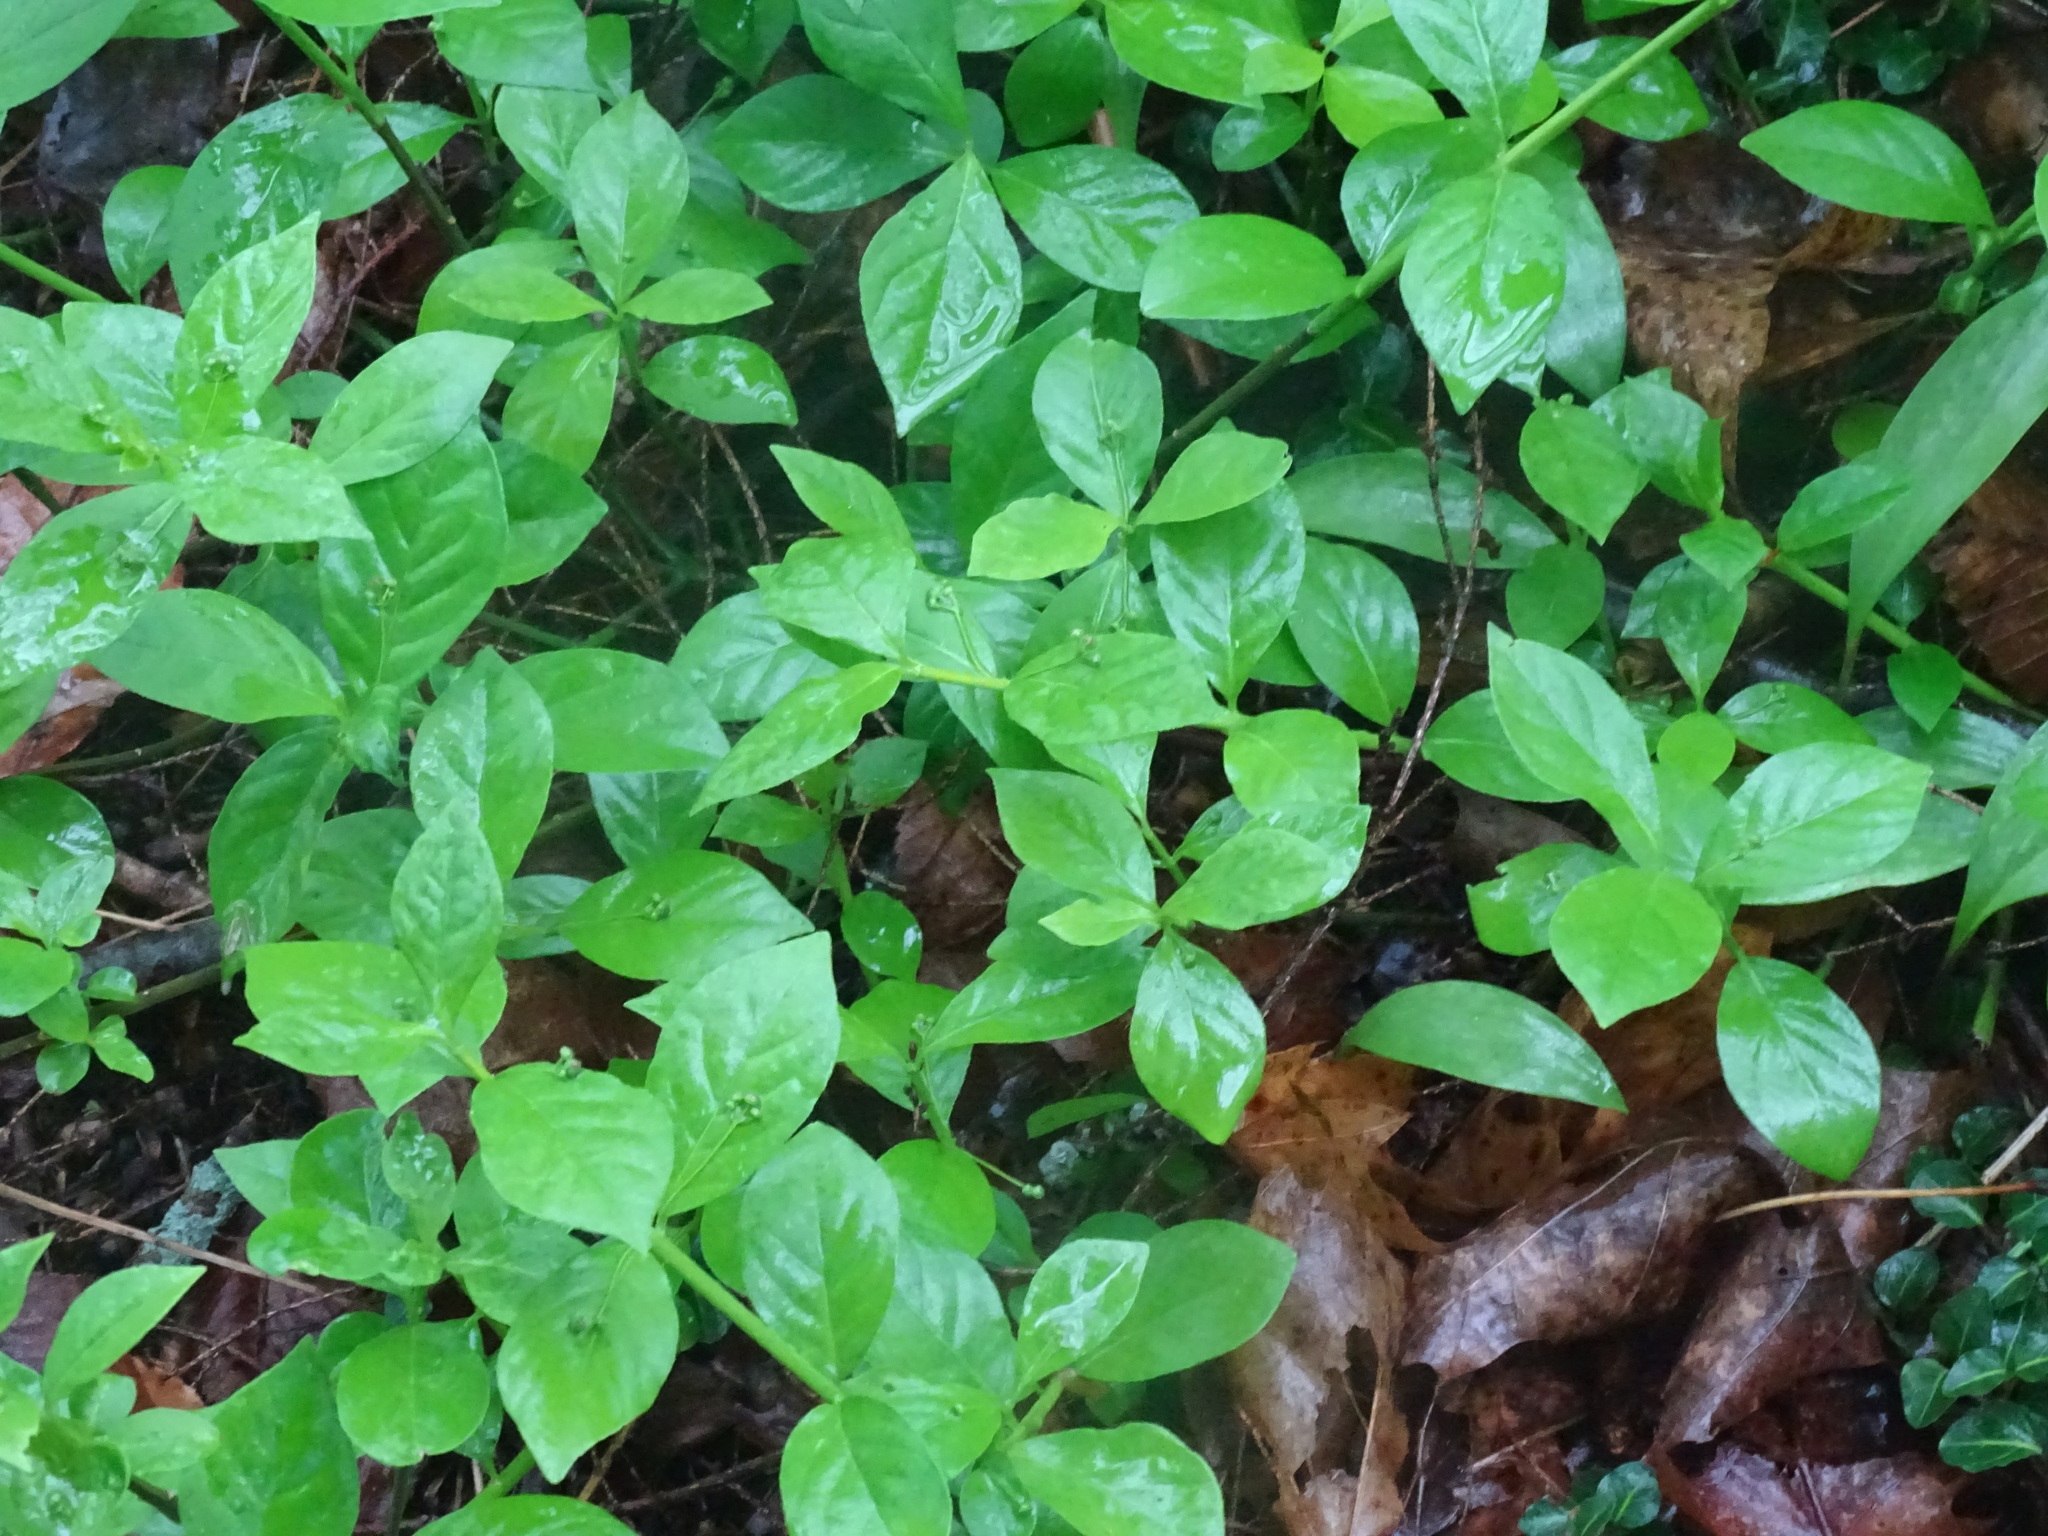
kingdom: Plantae
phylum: Tracheophyta
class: Magnoliopsida
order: Celastrales
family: Celastraceae
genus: Euonymus
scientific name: Euonymus obovatus
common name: Running strawberry-bush
